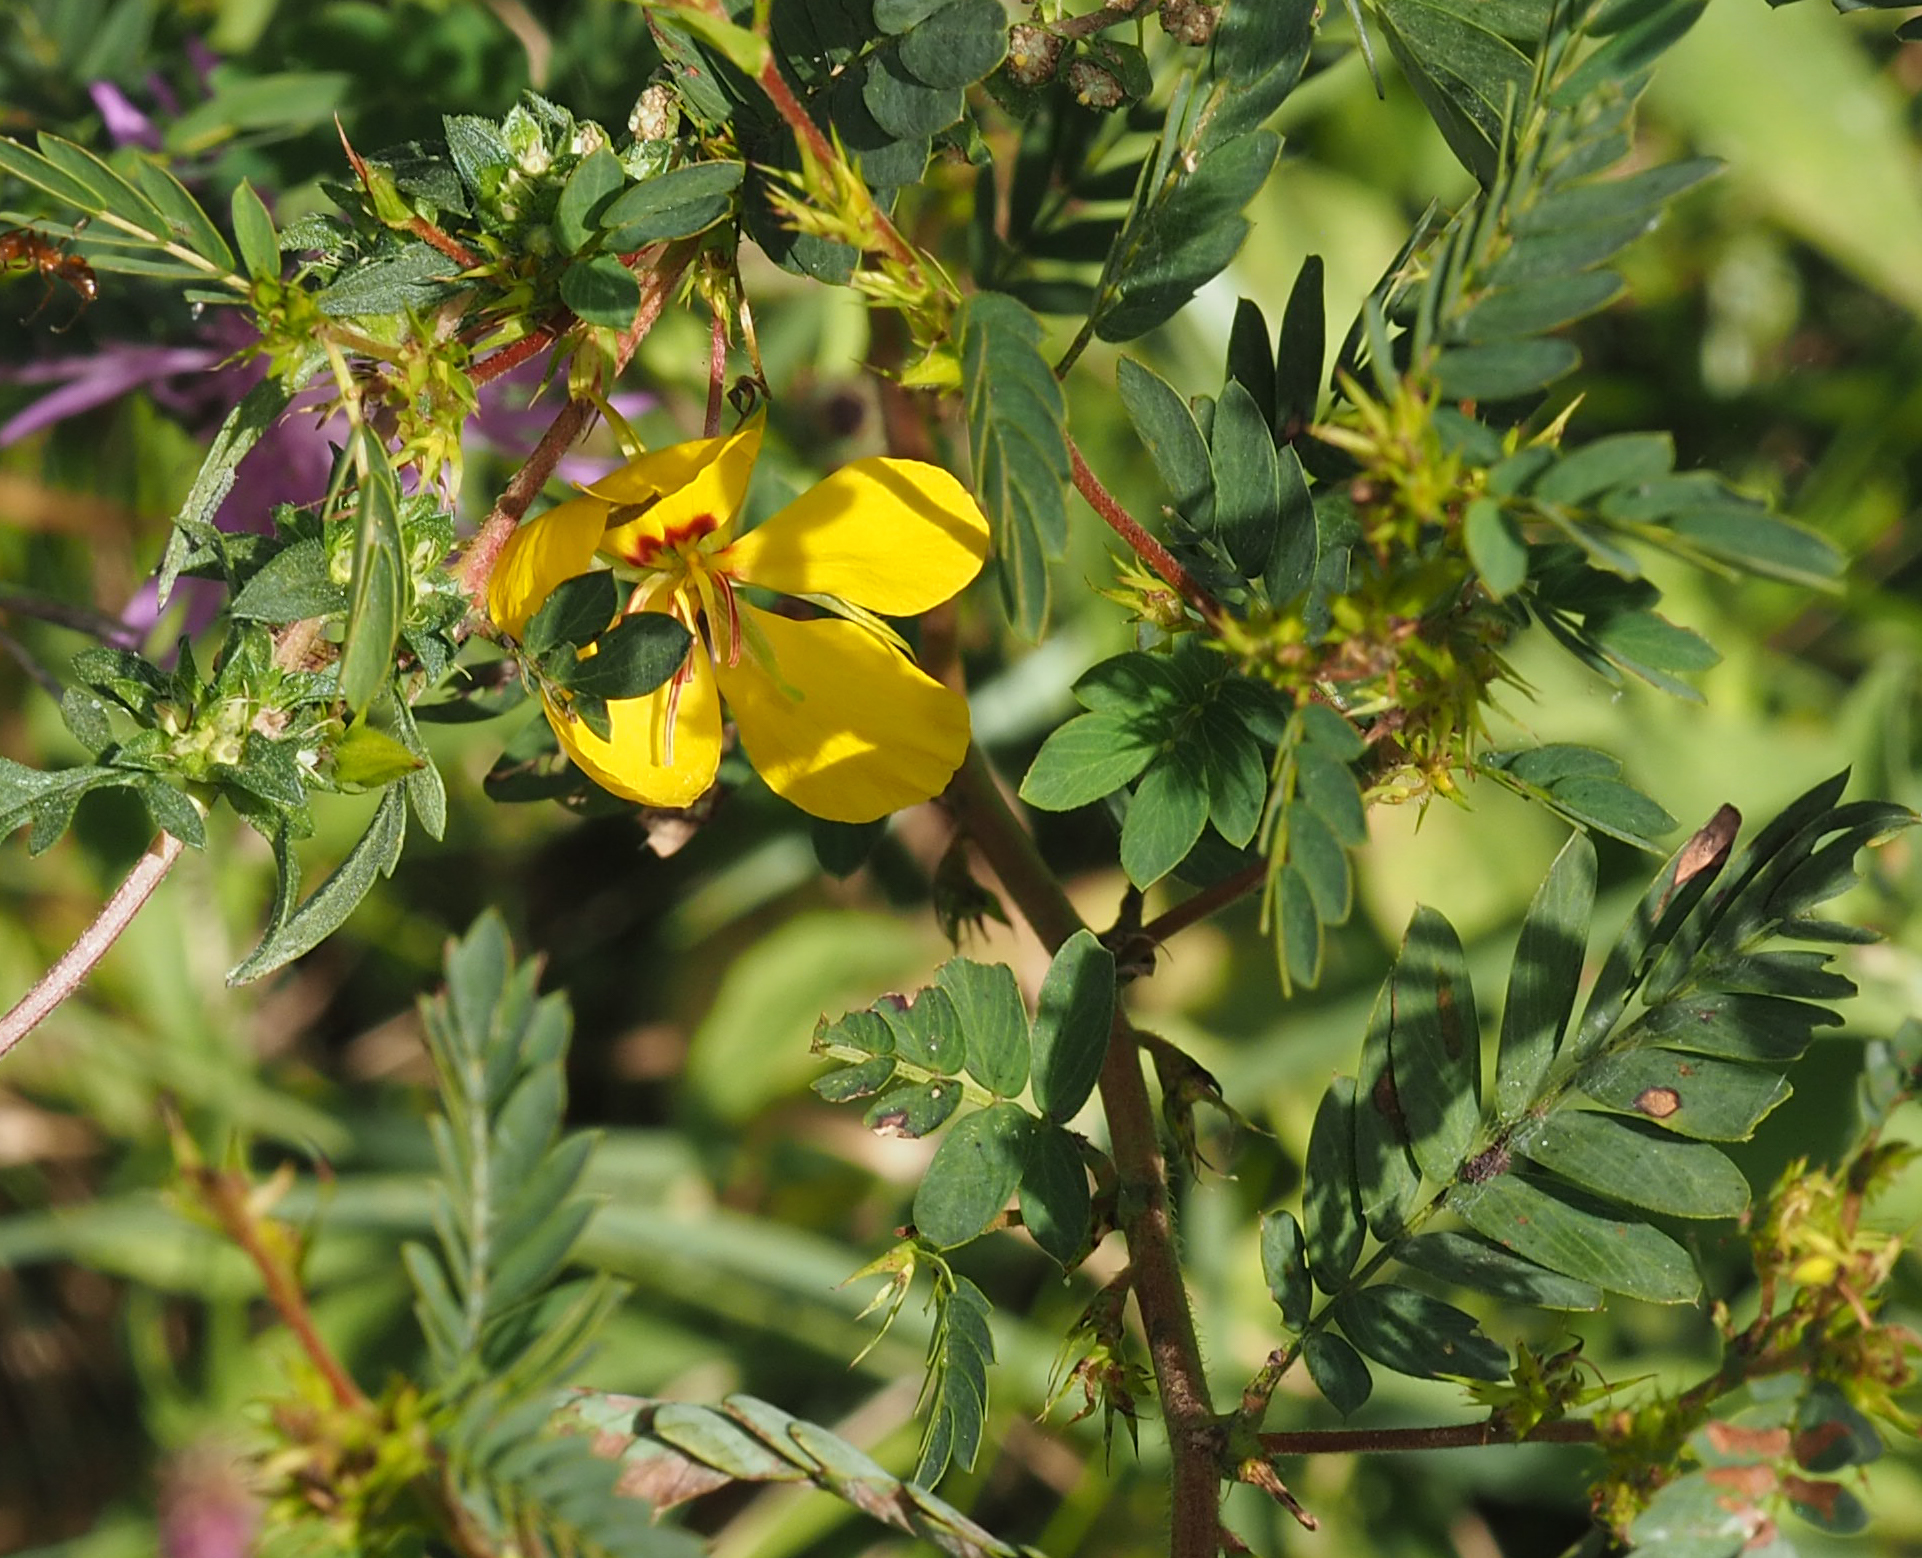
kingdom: Plantae
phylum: Tracheophyta
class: Magnoliopsida
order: Fabales
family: Fabaceae
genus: Chamaecrista
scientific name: Chamaecrista fasciculata
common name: Golden cassia
